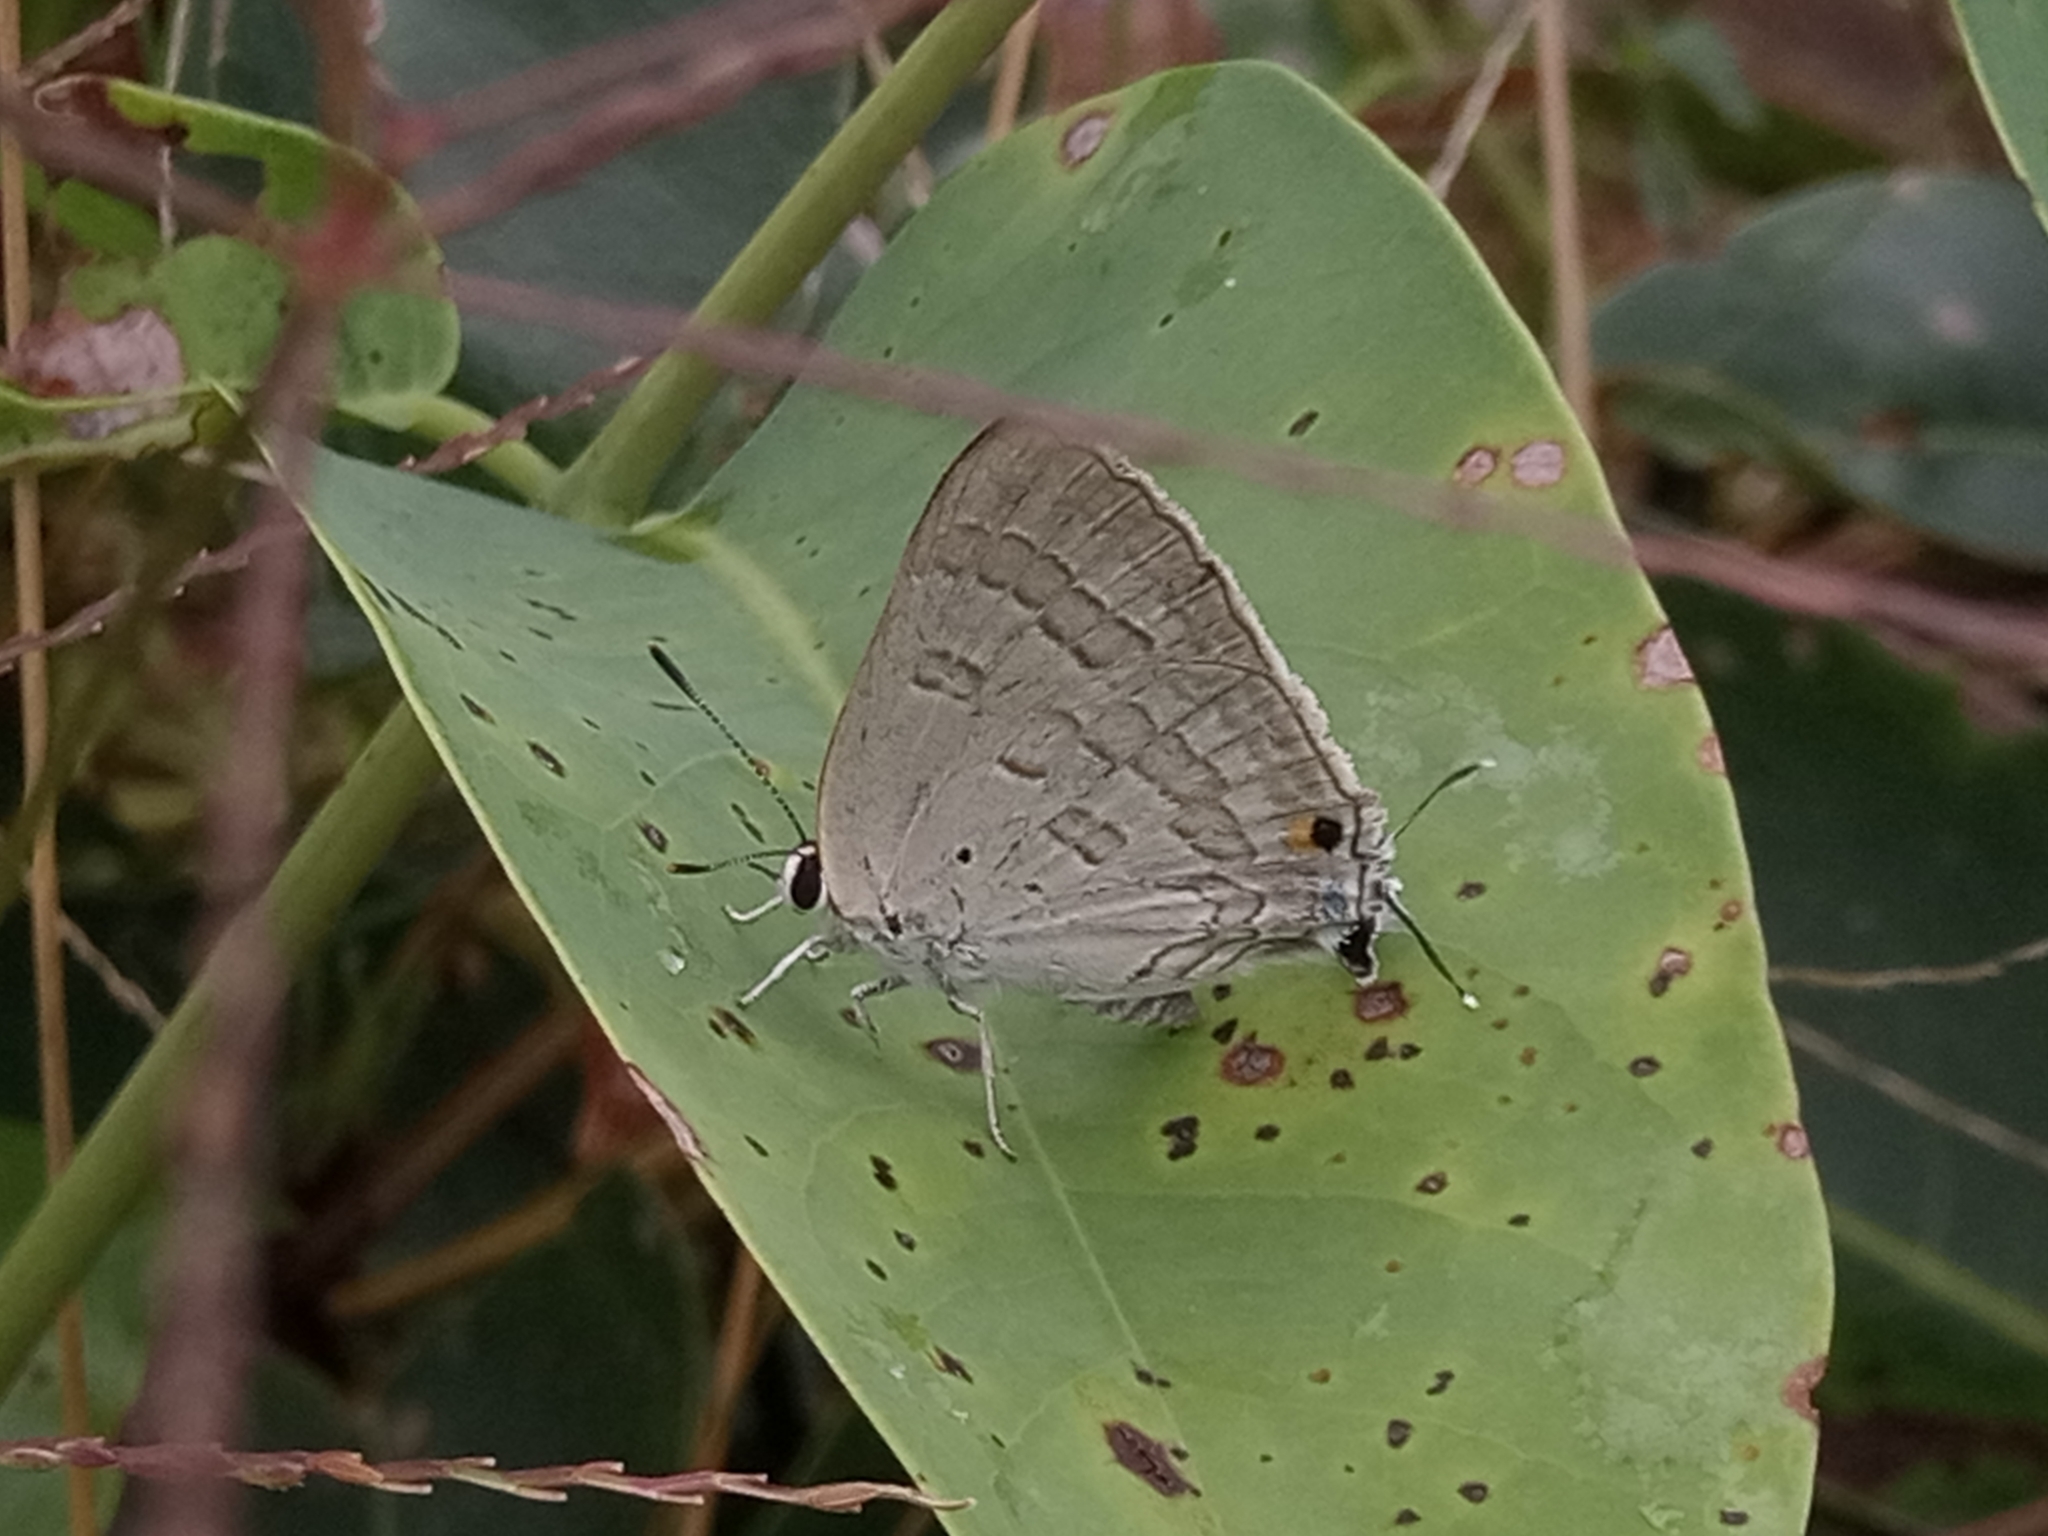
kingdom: Animalia
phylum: Arthropoda
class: Insecta
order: Lepidoptera
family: Lycaenidae
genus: Deudorix
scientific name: Deudorix antalus
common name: Brown playboy
